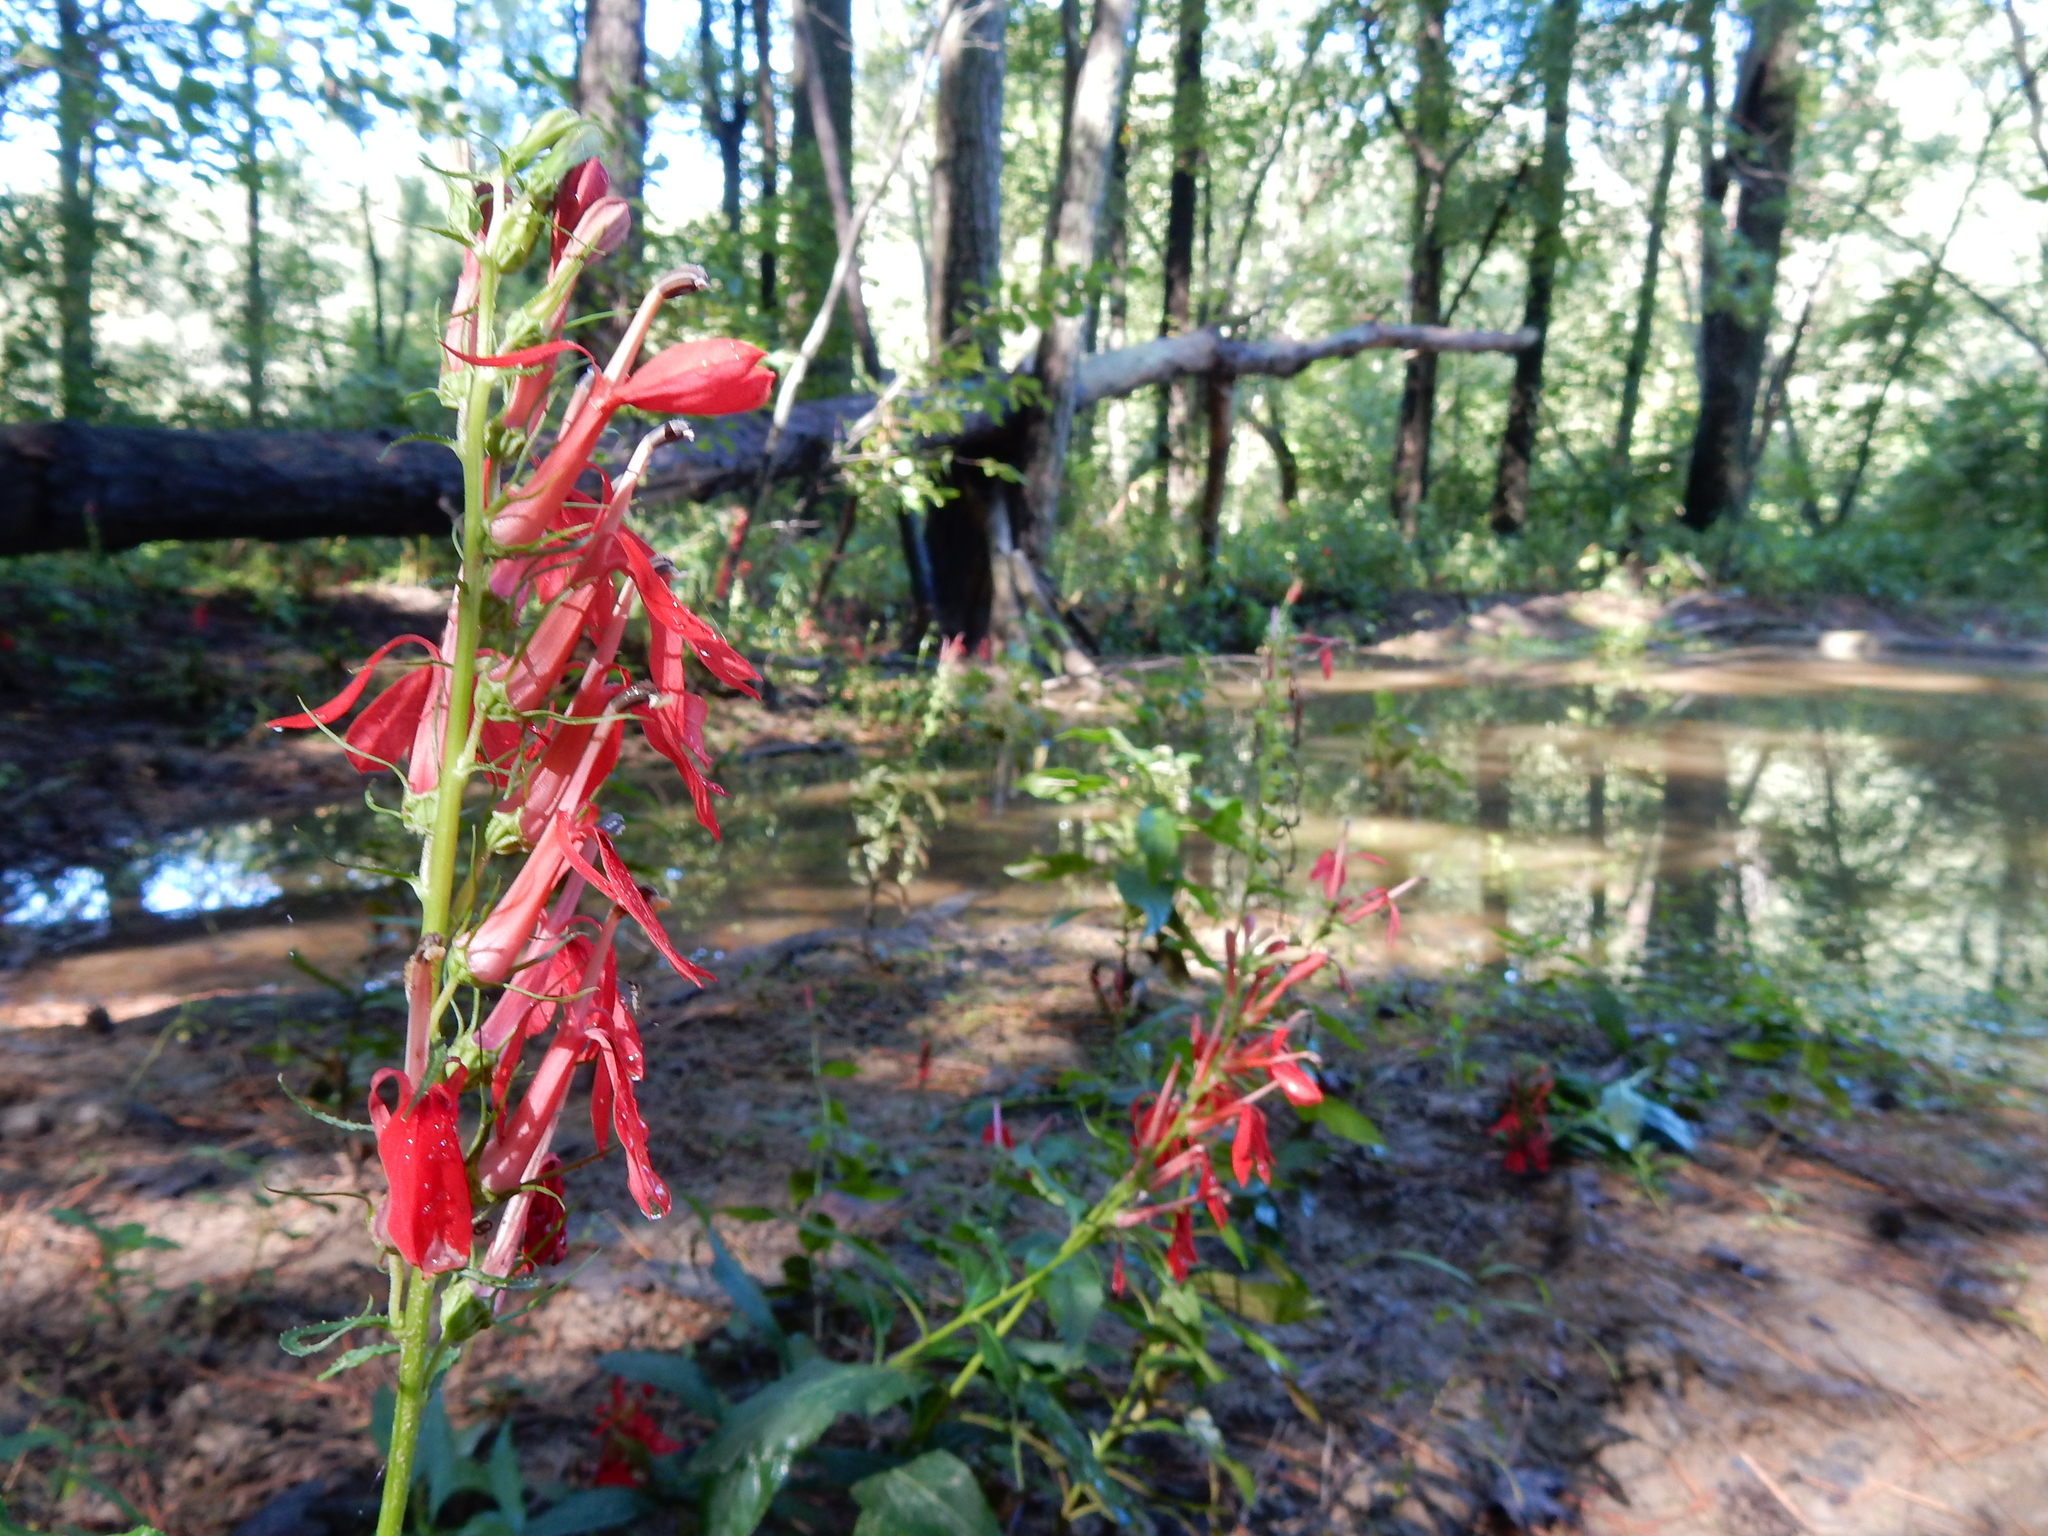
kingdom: Plantae
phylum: Tracheophyta
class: Magnoliopsida
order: Asterales
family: Campanulaceae
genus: Lobelia
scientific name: Lobelia cardinalis
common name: Cardinal flower
